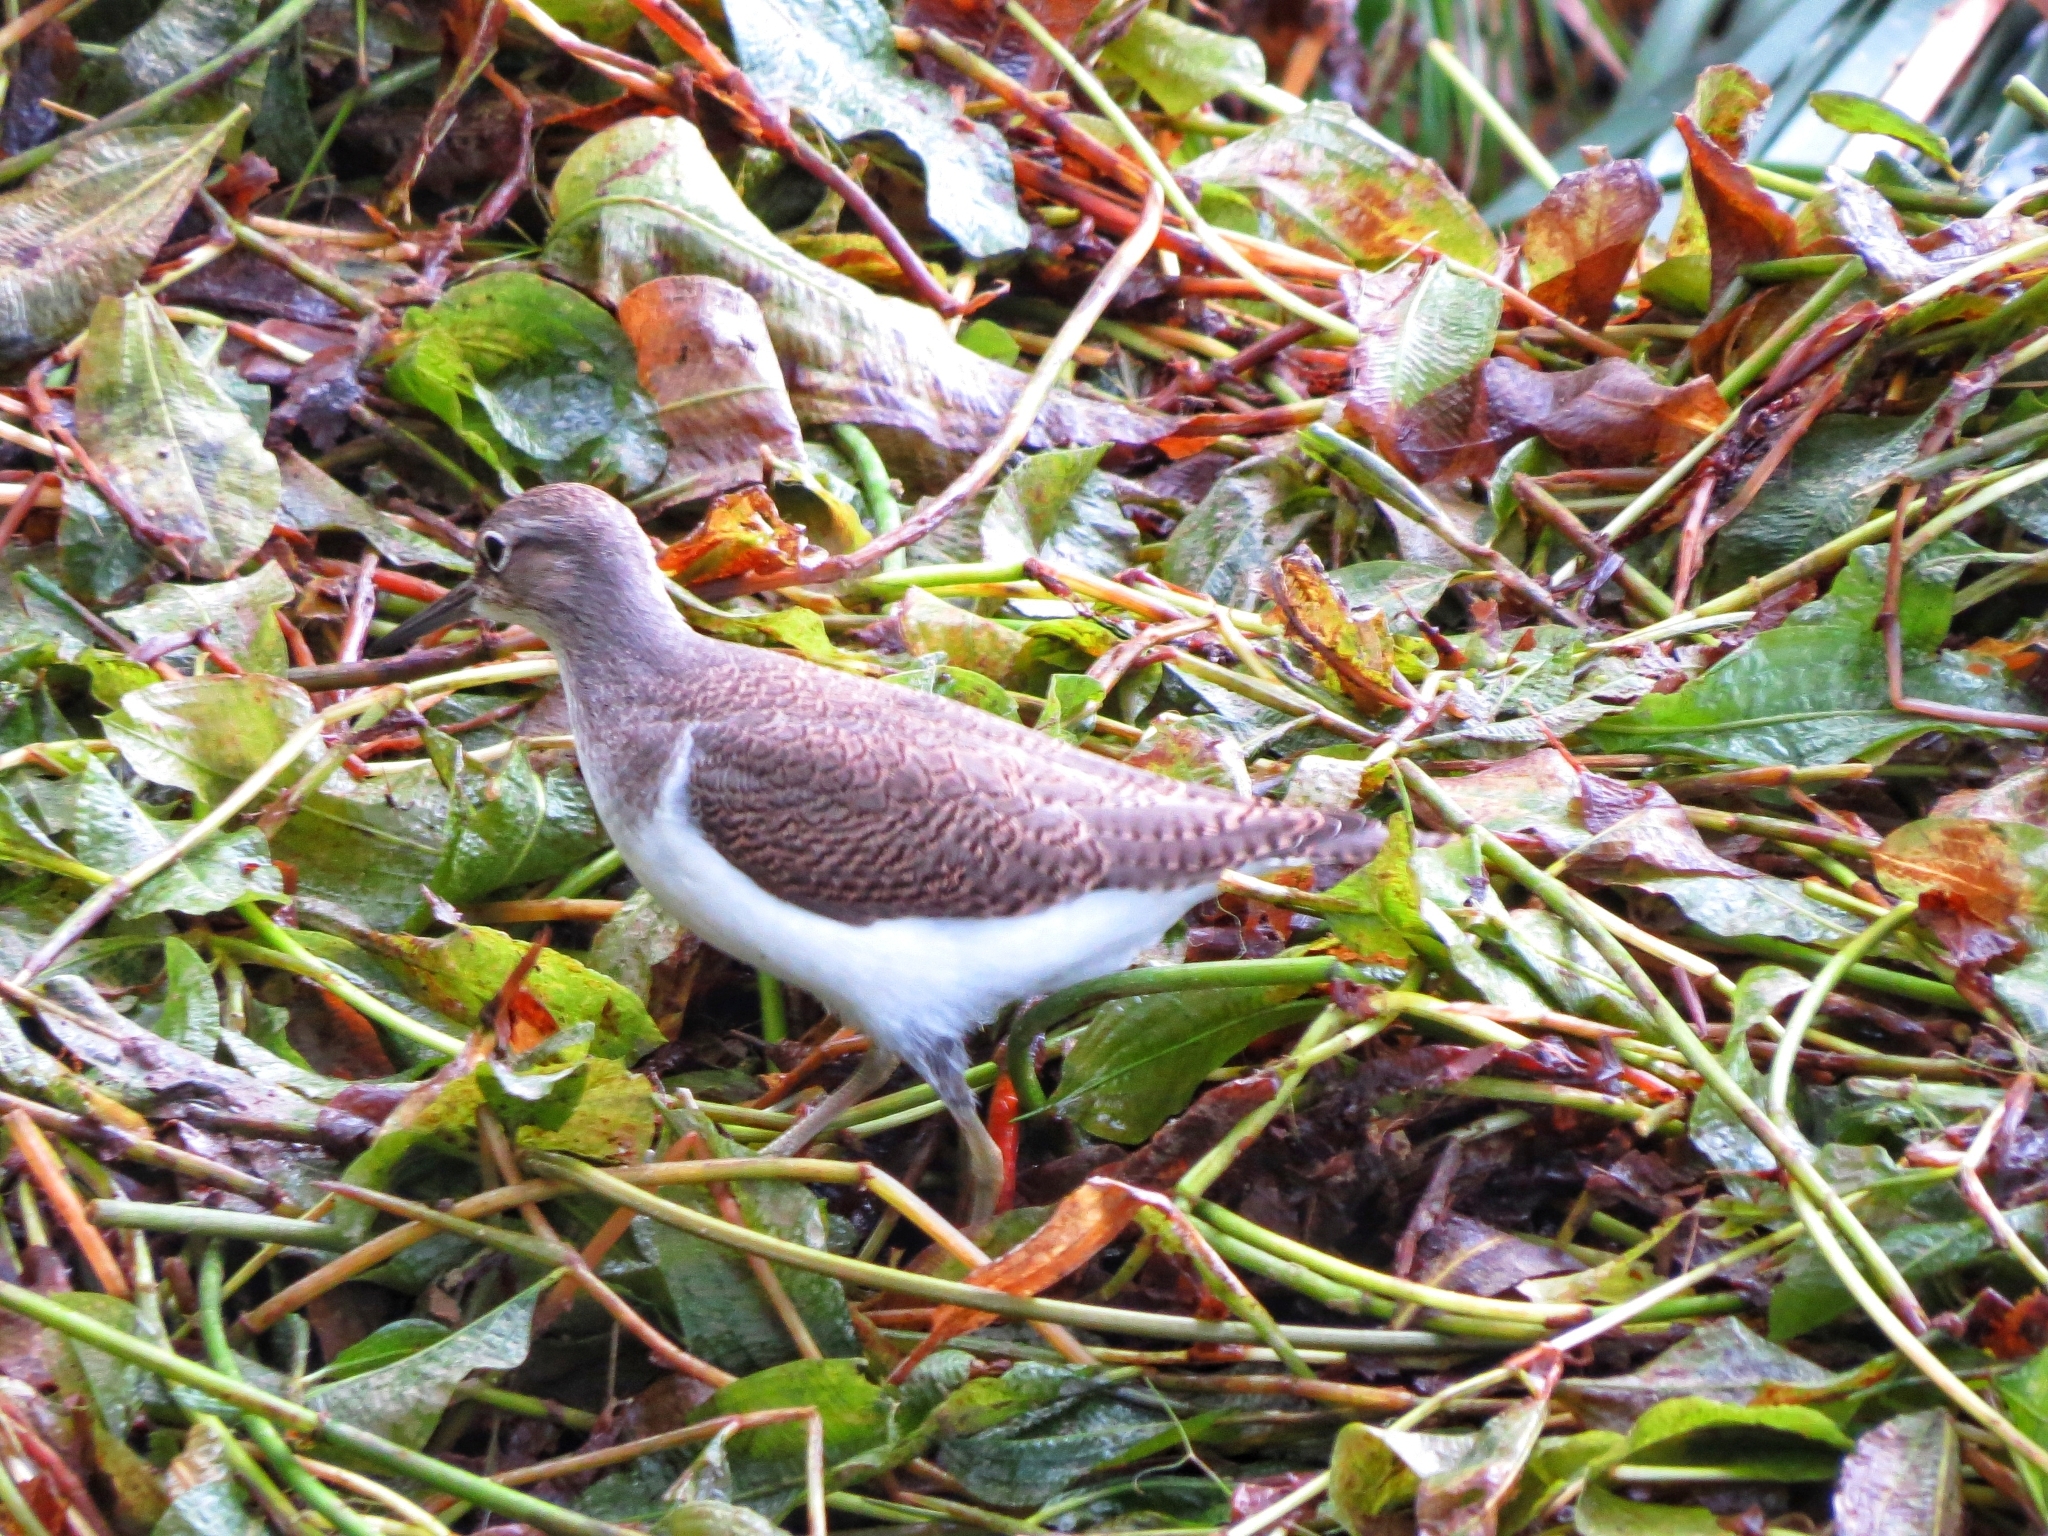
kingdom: Animalia
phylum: Chordata
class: Aves
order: Charadriiformes
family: Scolopacidae
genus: Actitis
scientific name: Actitis hypoleucos
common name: Common sandpiper
